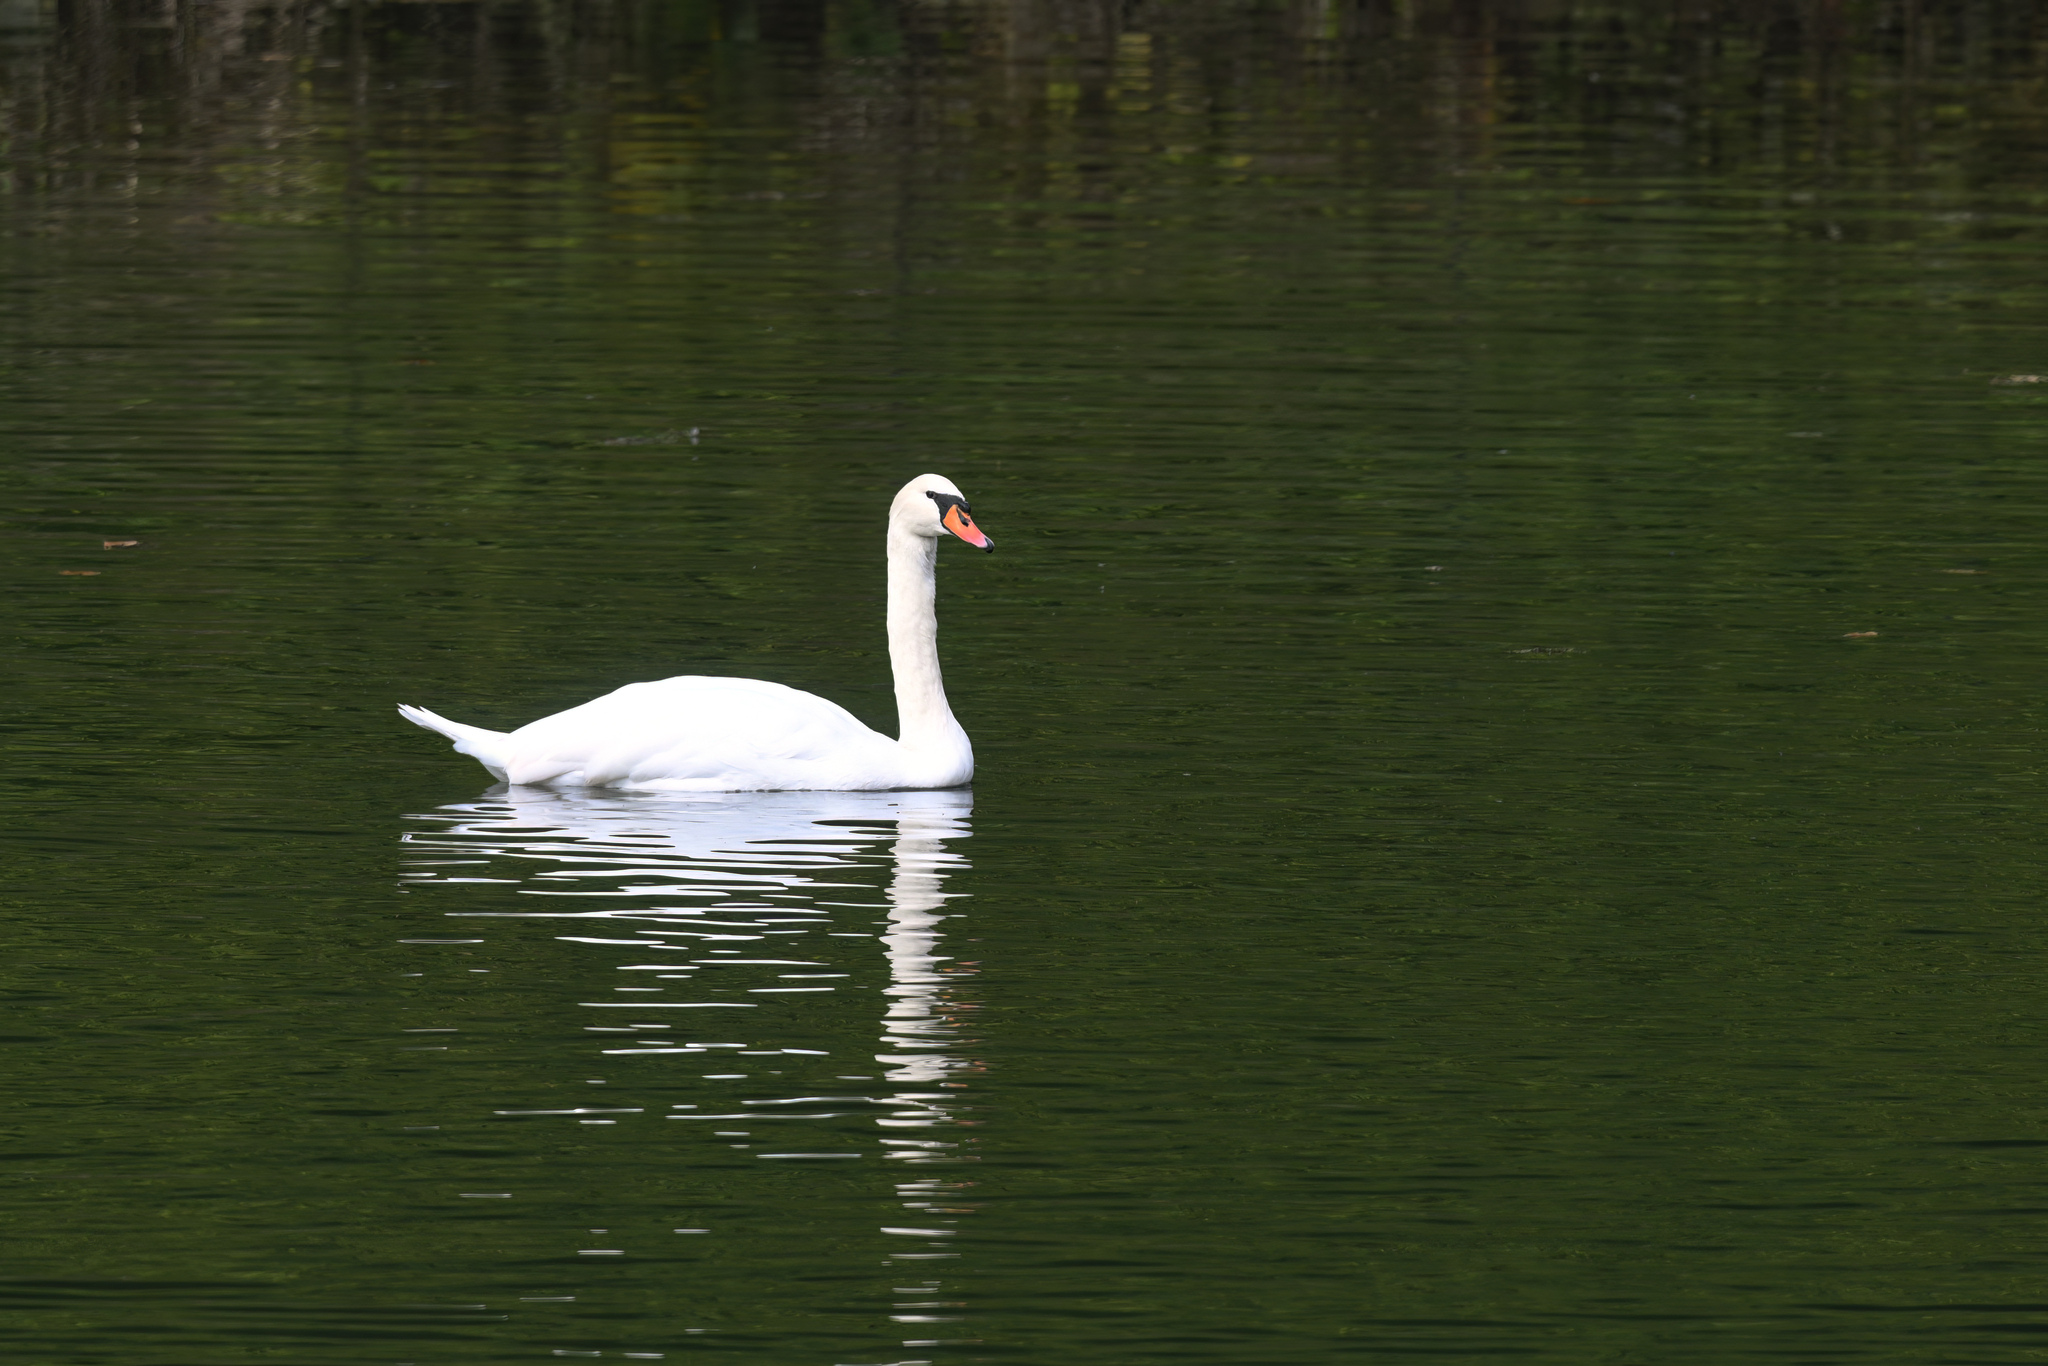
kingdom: Animalia
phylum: Chordata
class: Aves
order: Anseriformes
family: Anatidae
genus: Cygnus
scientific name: Cygnus olor
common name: Mute swan
